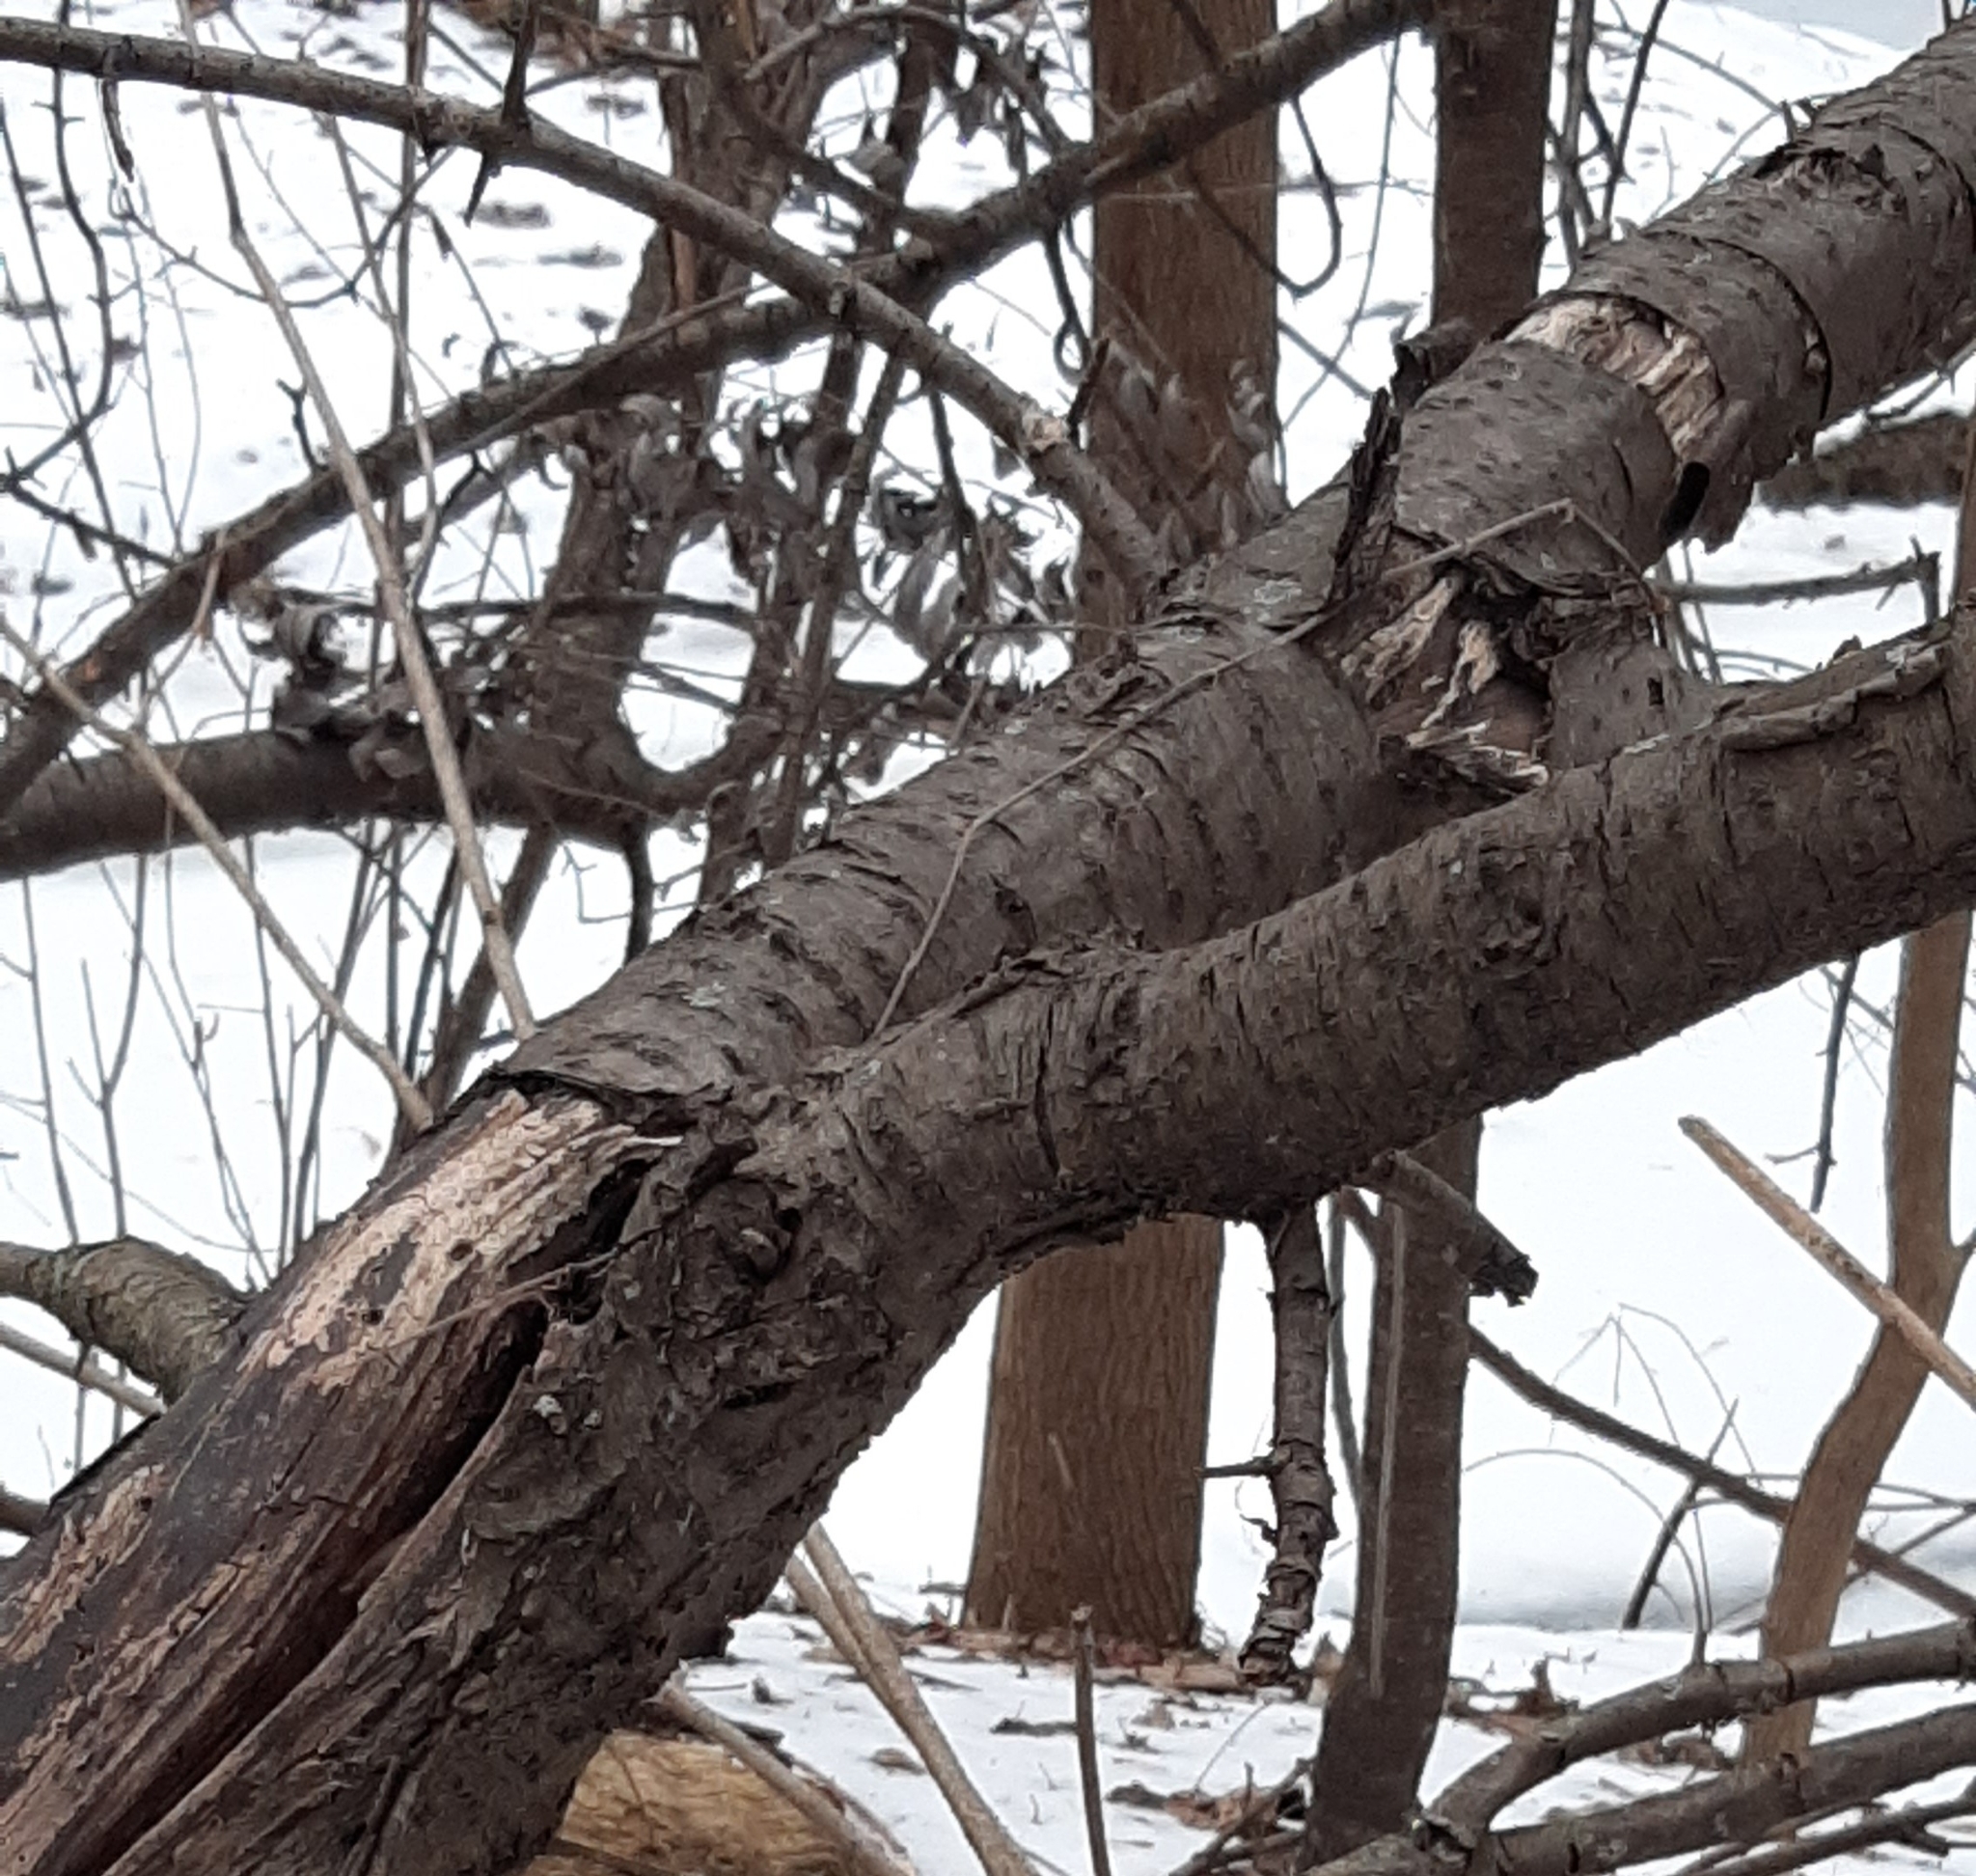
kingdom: Fungi
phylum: Basidiomycota
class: Agaricomycetes
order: Russulales
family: Peniophoraceae
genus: Peniophora
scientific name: Peniophora albobadia
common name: Giraffe spots
